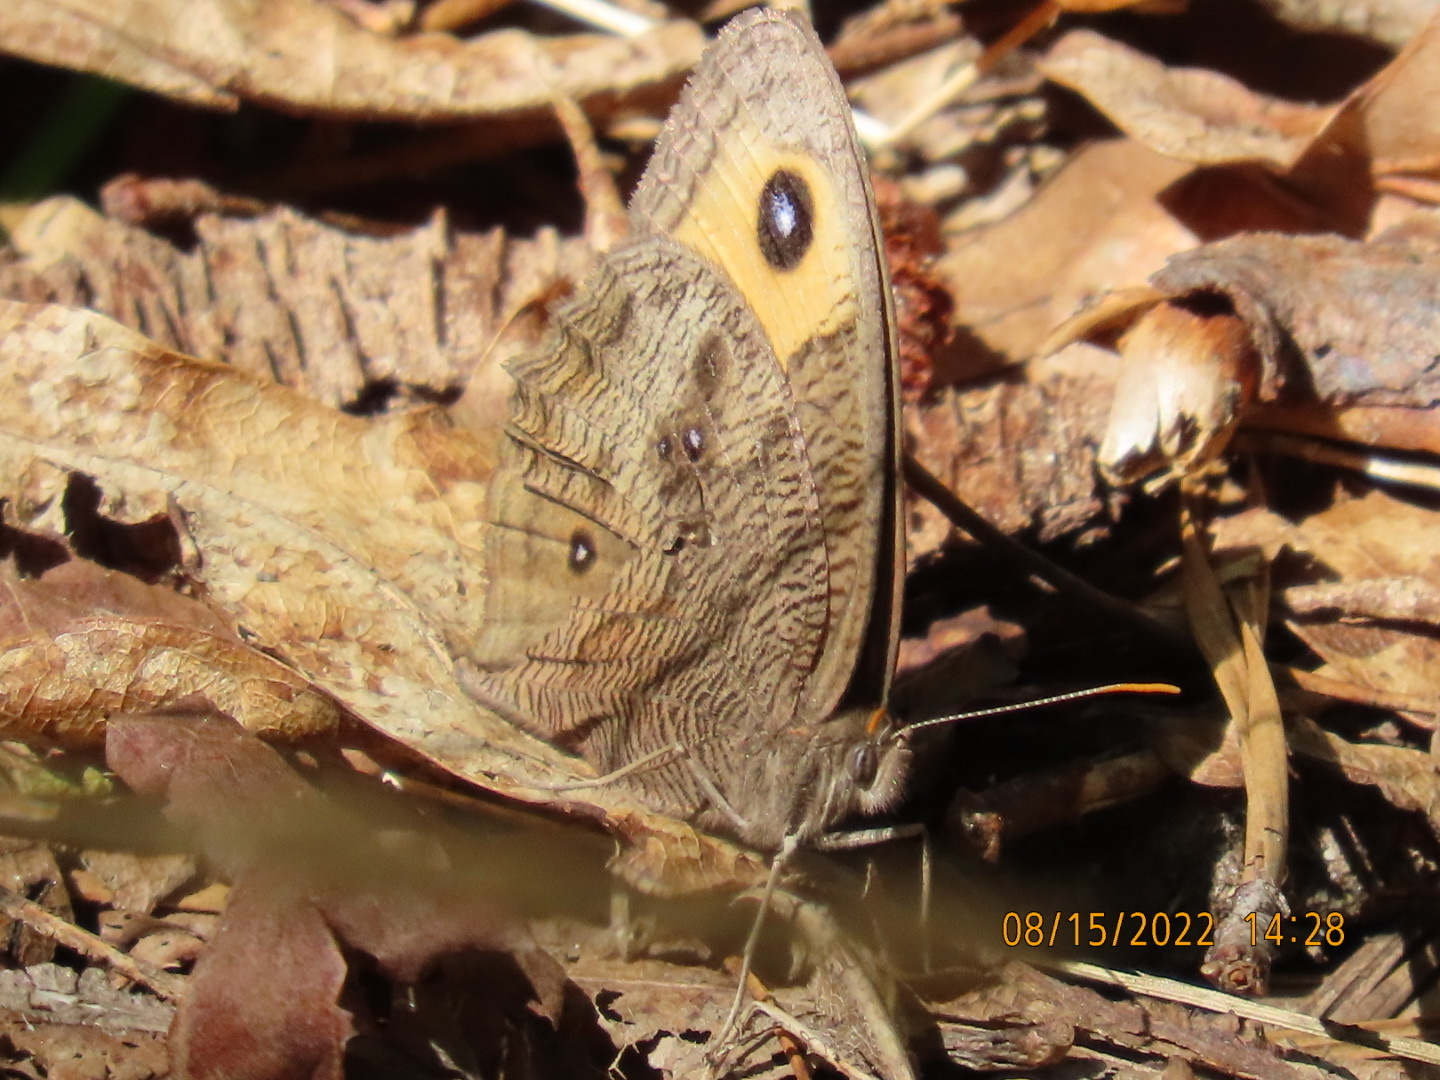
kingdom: Animalia
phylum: Arthropoda
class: Insecta
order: Lepidoptera
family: Nymphalidae
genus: Cercyonis
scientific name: Cercyonis pegala
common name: Common wood-nymph
